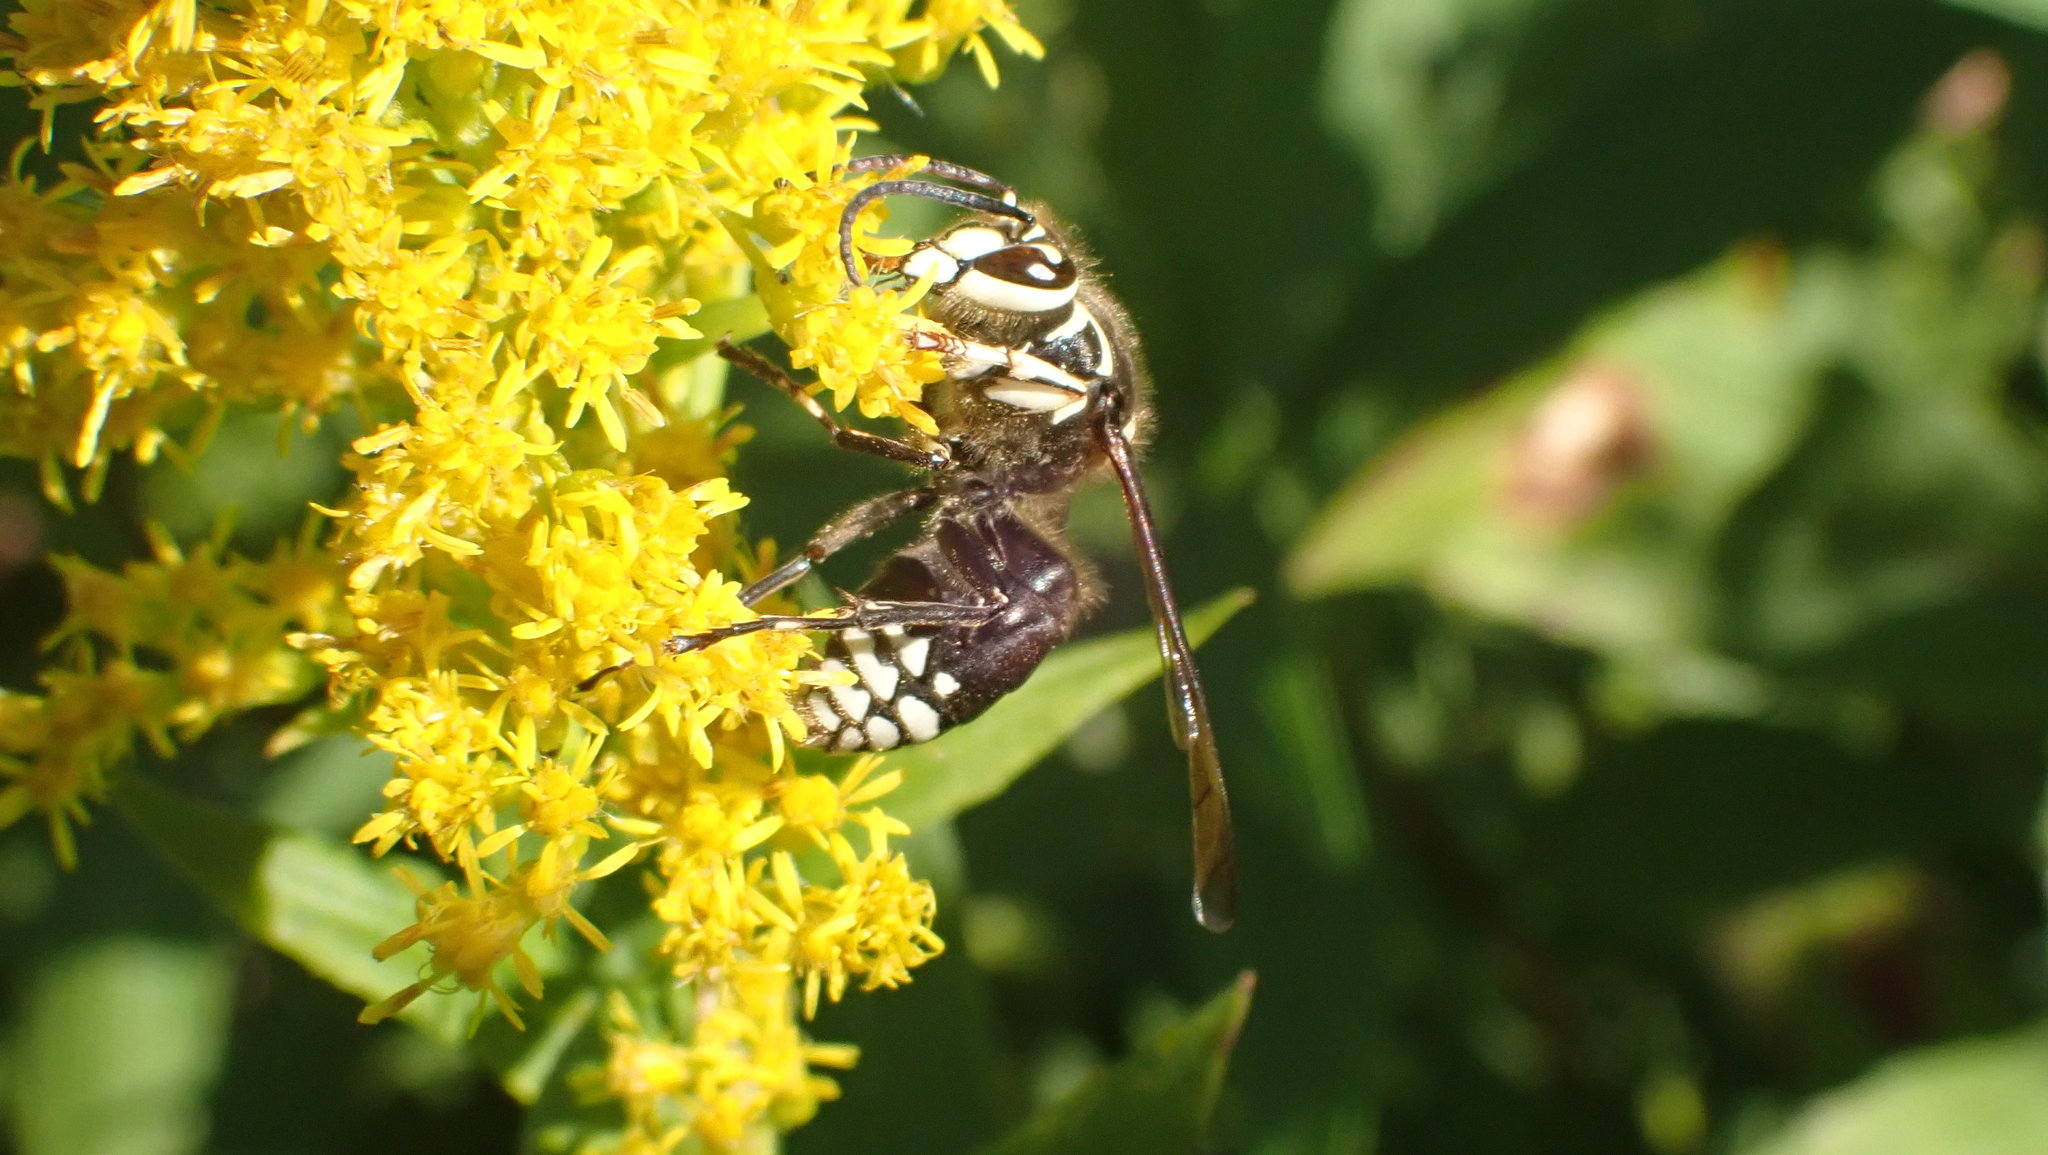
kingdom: Animalia
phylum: Arthropoda
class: Insecta
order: Hymenoptera
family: Vespidae
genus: Dolichovespula
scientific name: Dolichovespula maculata
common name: Bald-faced hornet
